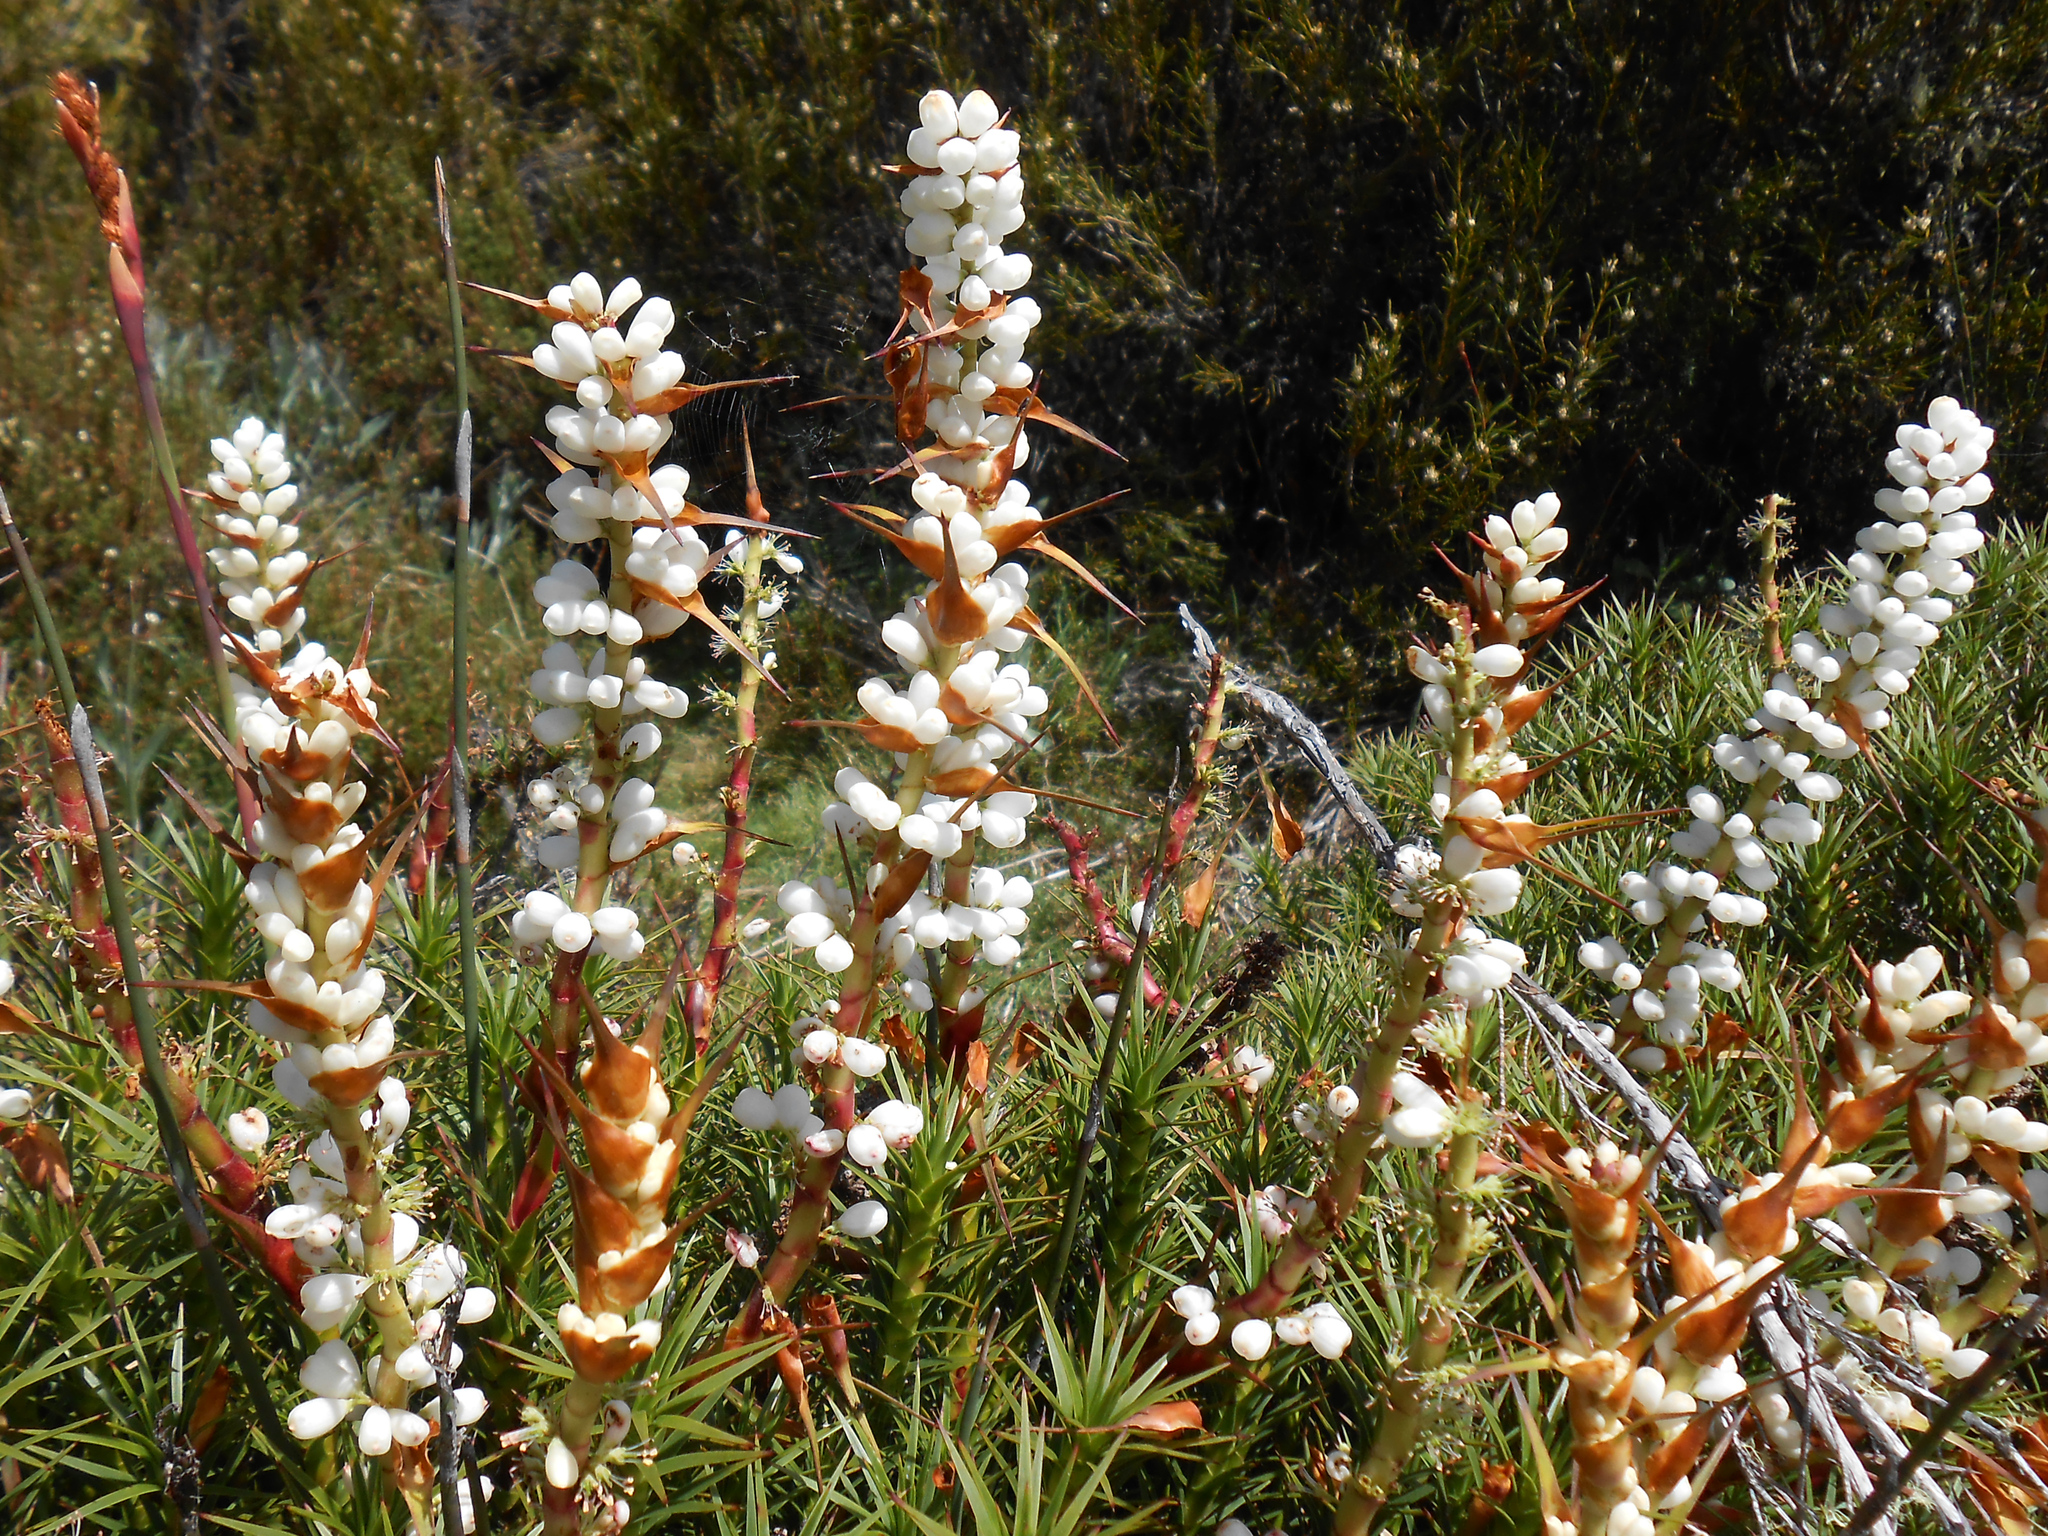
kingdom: Plantae
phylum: Tracheophyta
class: Magnoliopsida
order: Ericales
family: Ericaceae
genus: Dracophyllum
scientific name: Dracophyllum persistentifolium
